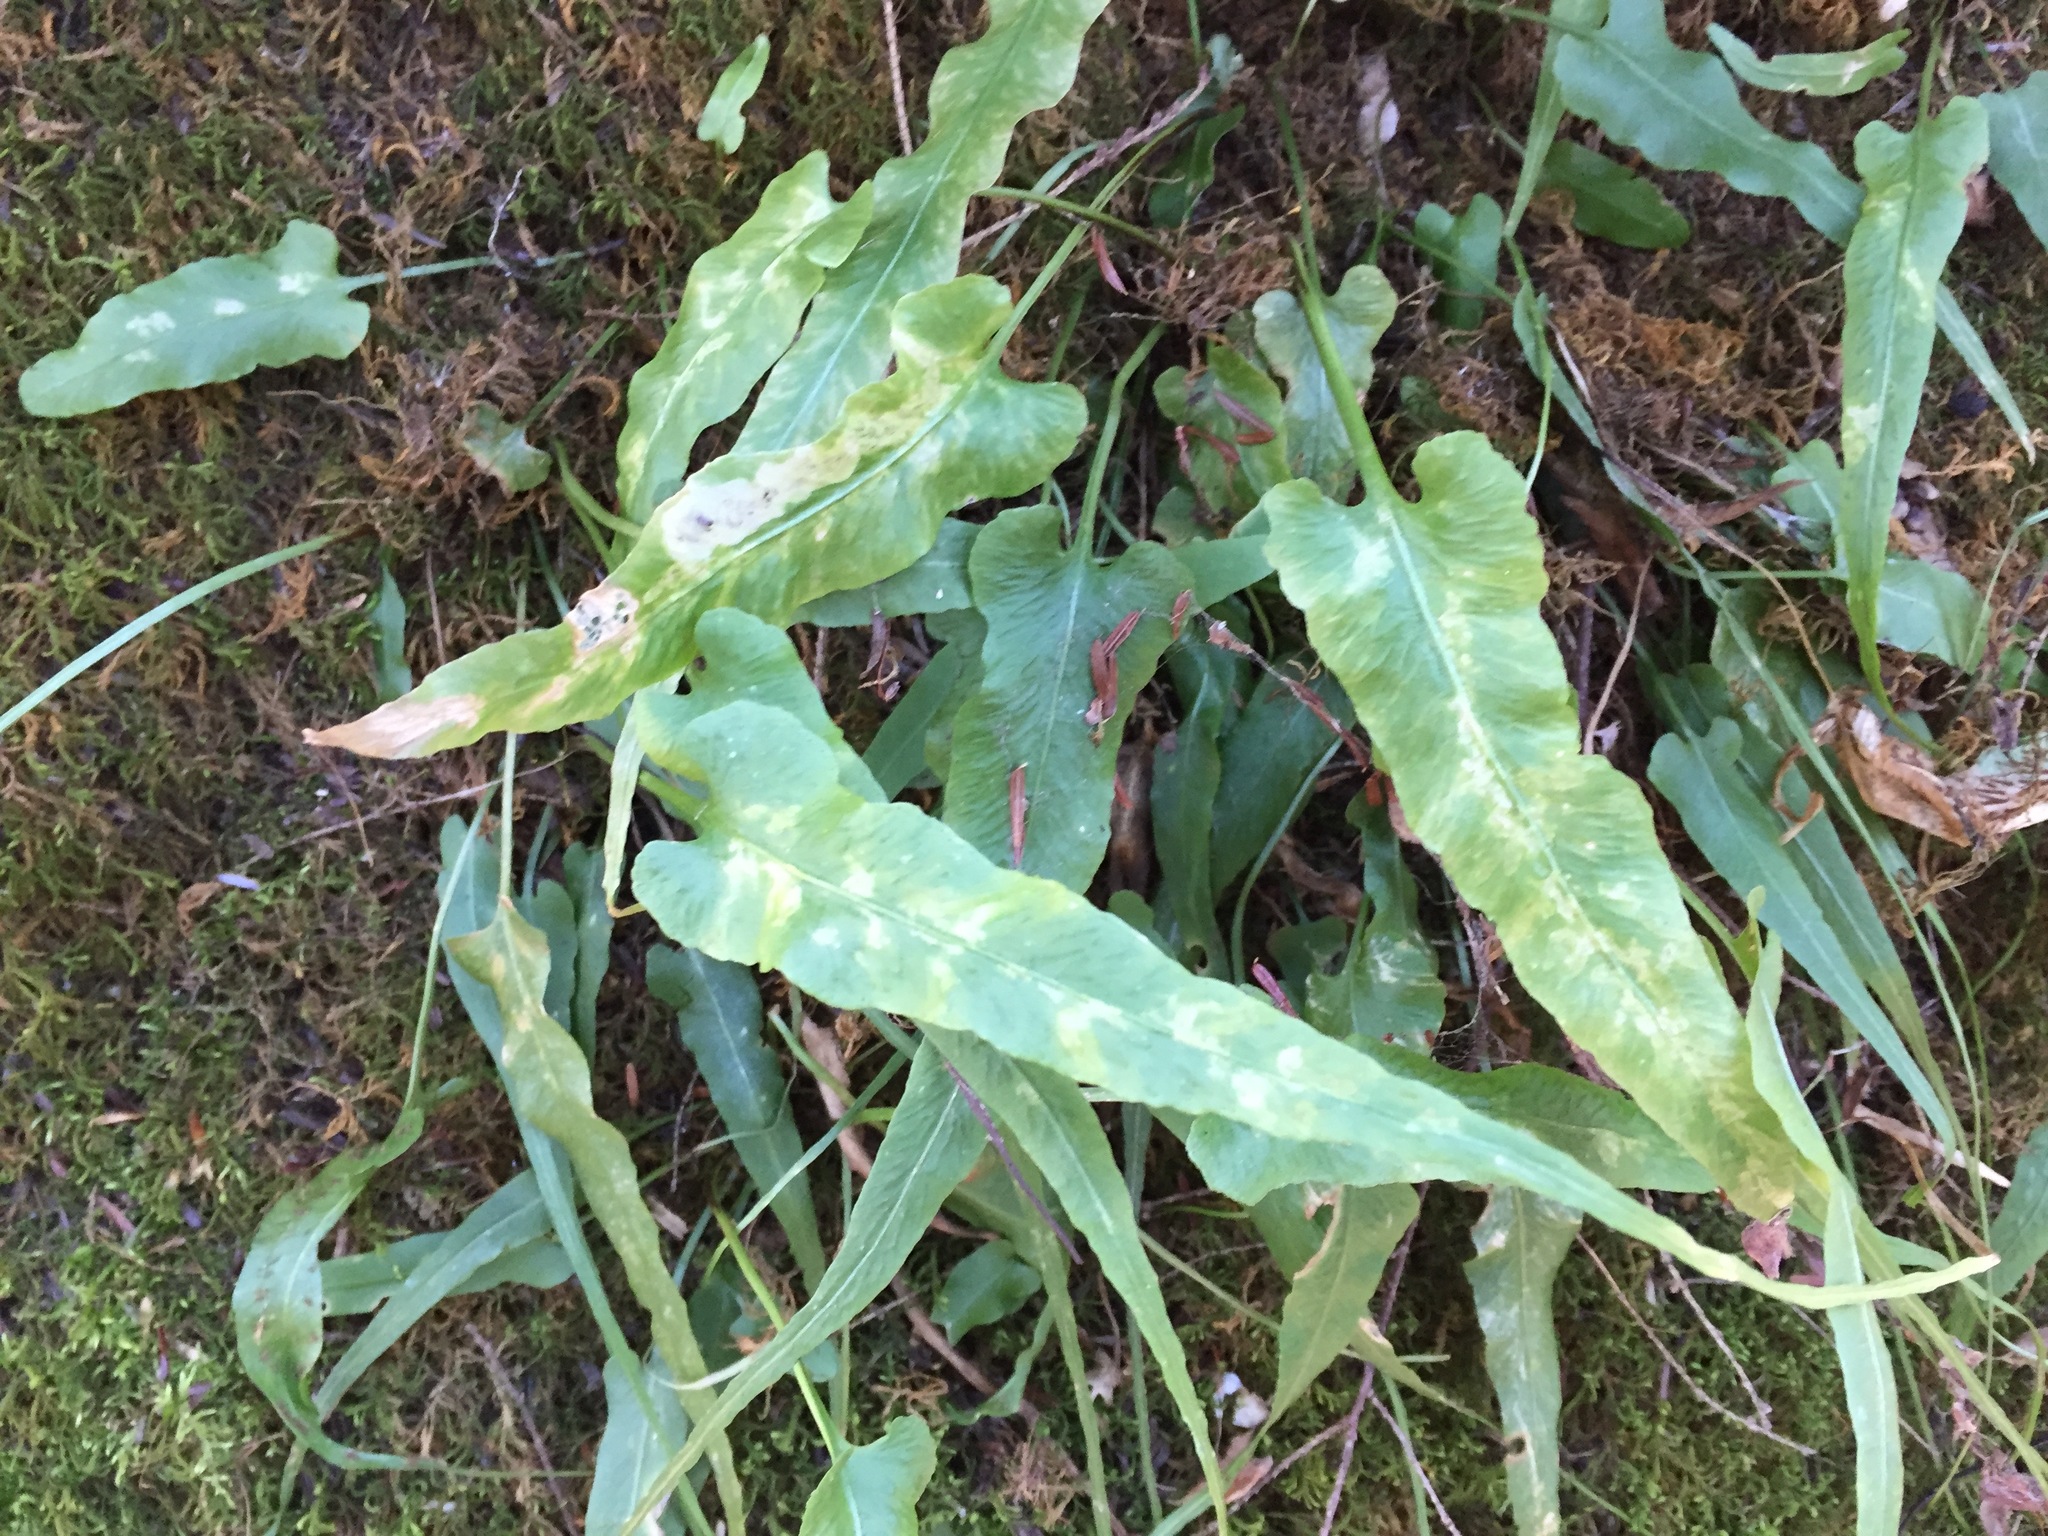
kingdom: Plantae
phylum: Tracheophyta
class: Polypodiopsida
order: Polypodiales
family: Aspleniaceae
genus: Asplenium
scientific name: Asplenium rhizophyllum
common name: Walking fern
